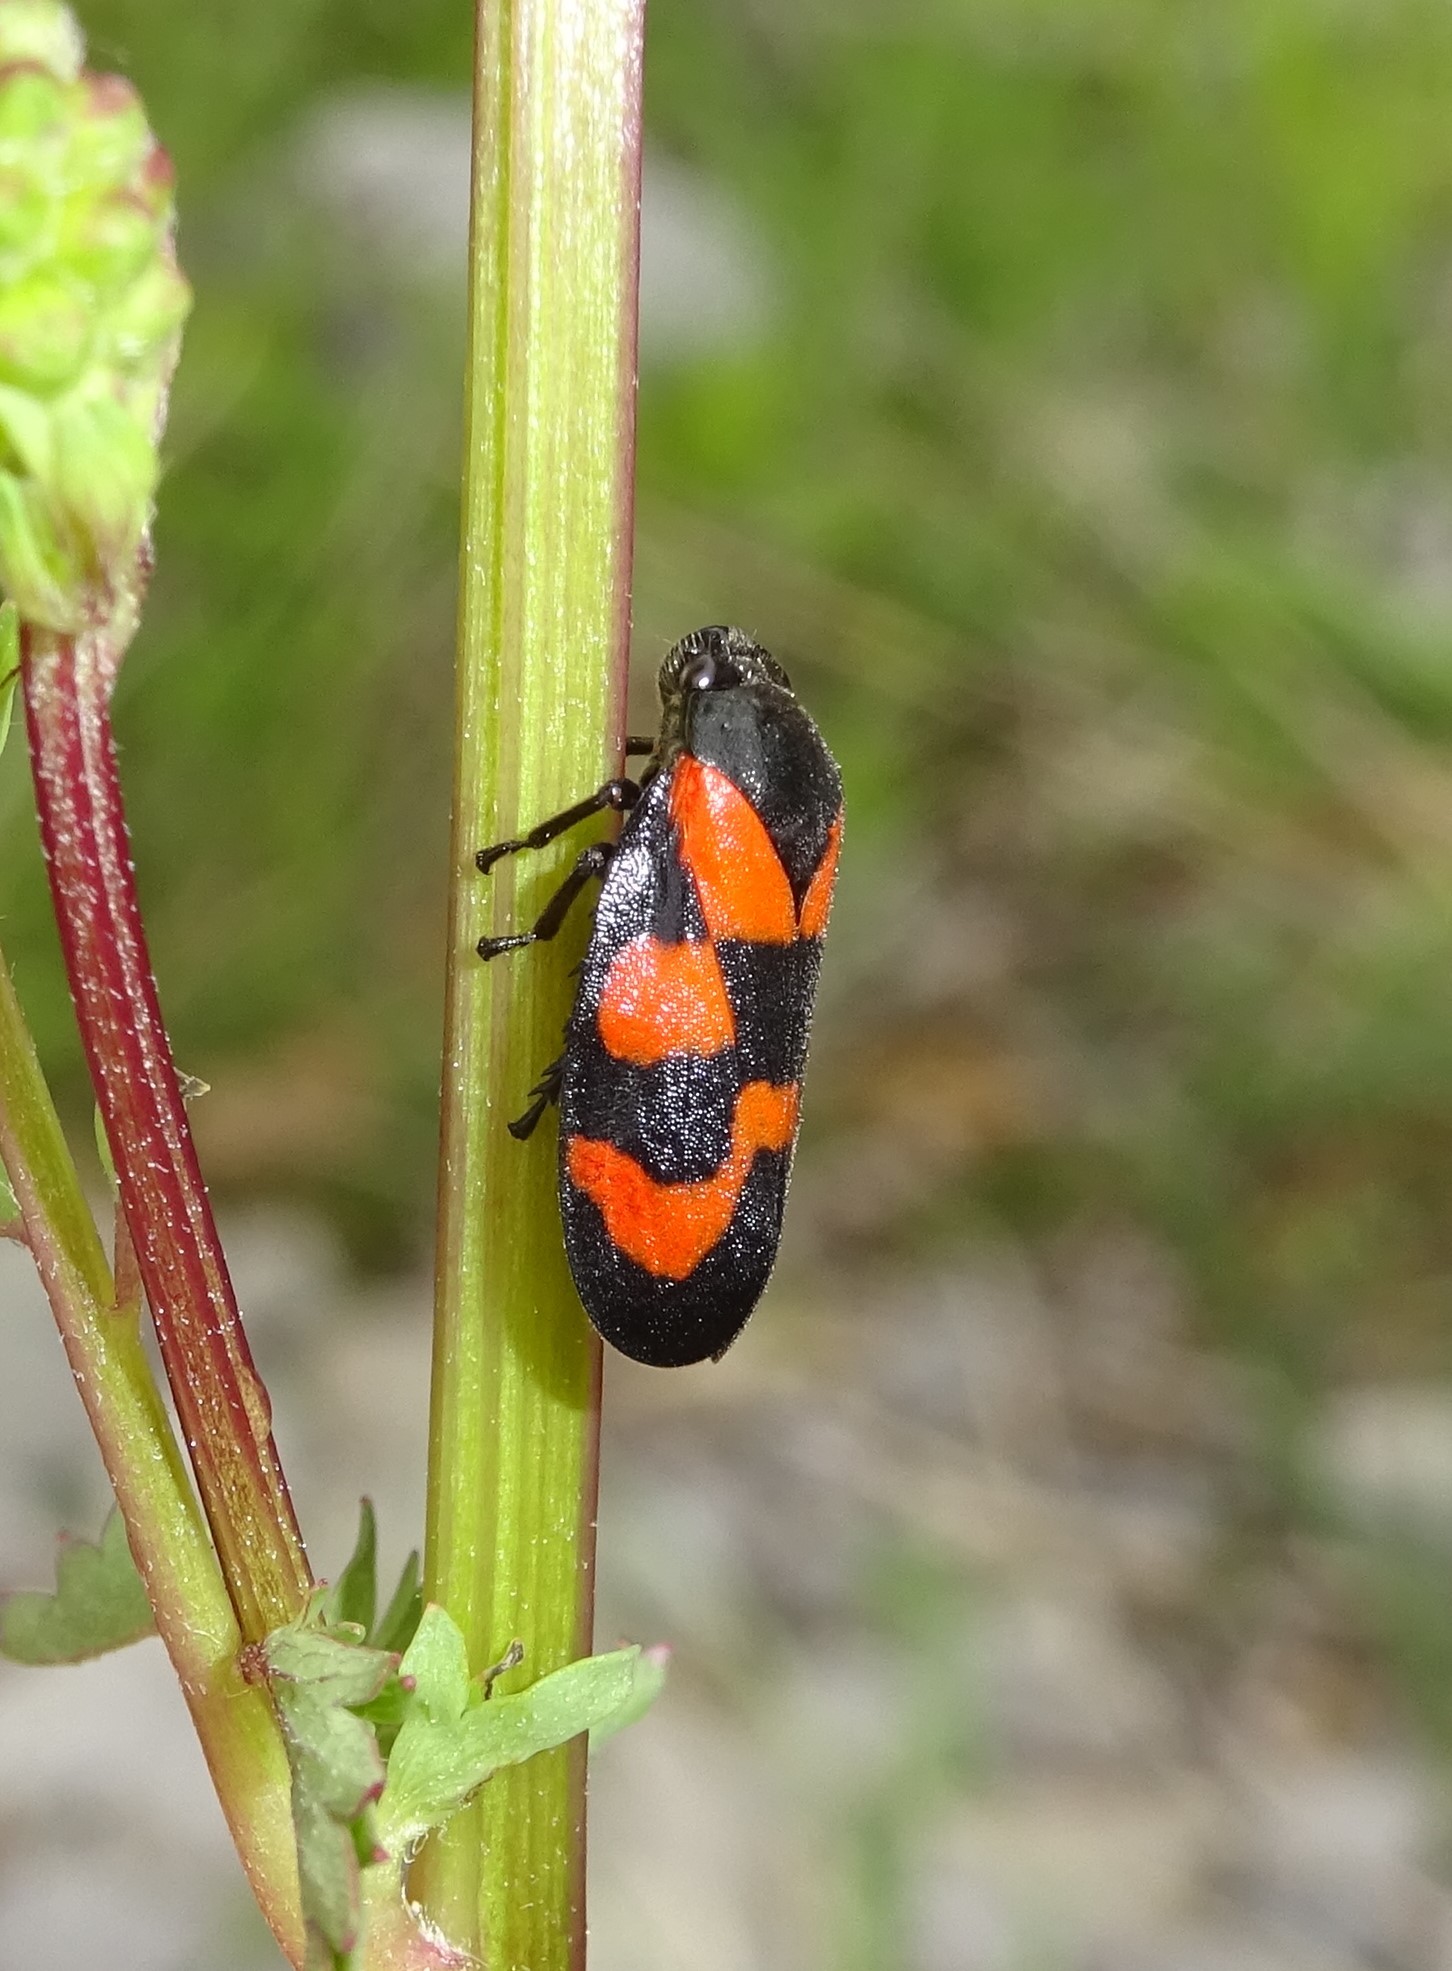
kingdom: Animalia
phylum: Arthropoda
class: Insecta
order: Hemiptera
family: Cercopidae
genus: Cercopis
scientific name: Cercopis vulnerata
